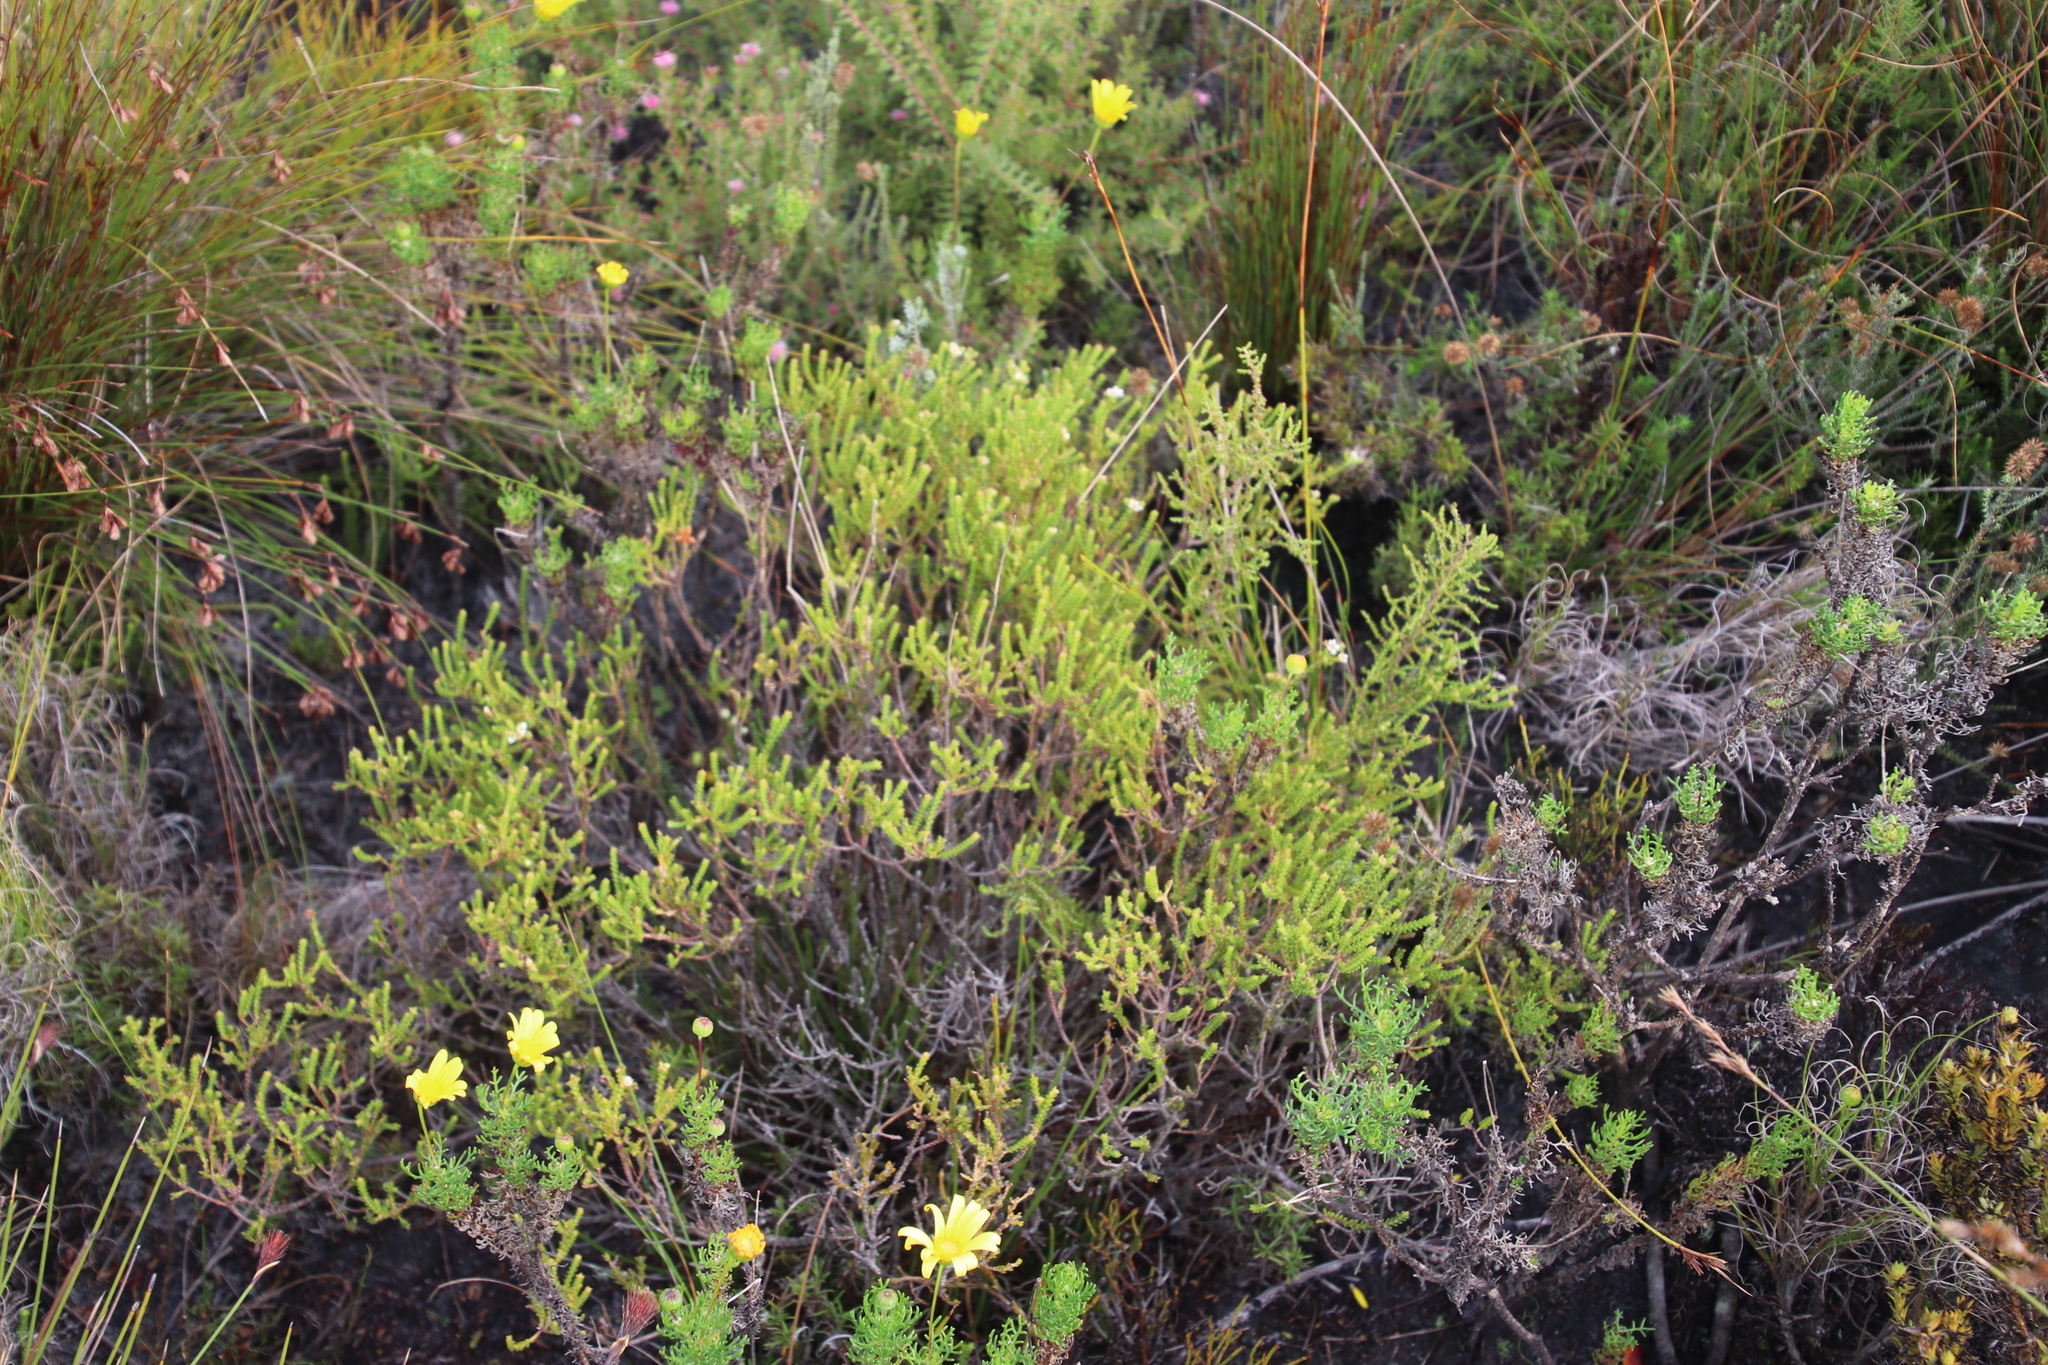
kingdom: Plantae
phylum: Tracheophyta
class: Magnoliopsida
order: Sapindales
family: Rutaceae
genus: Diosma
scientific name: Diosma oppositifolia
